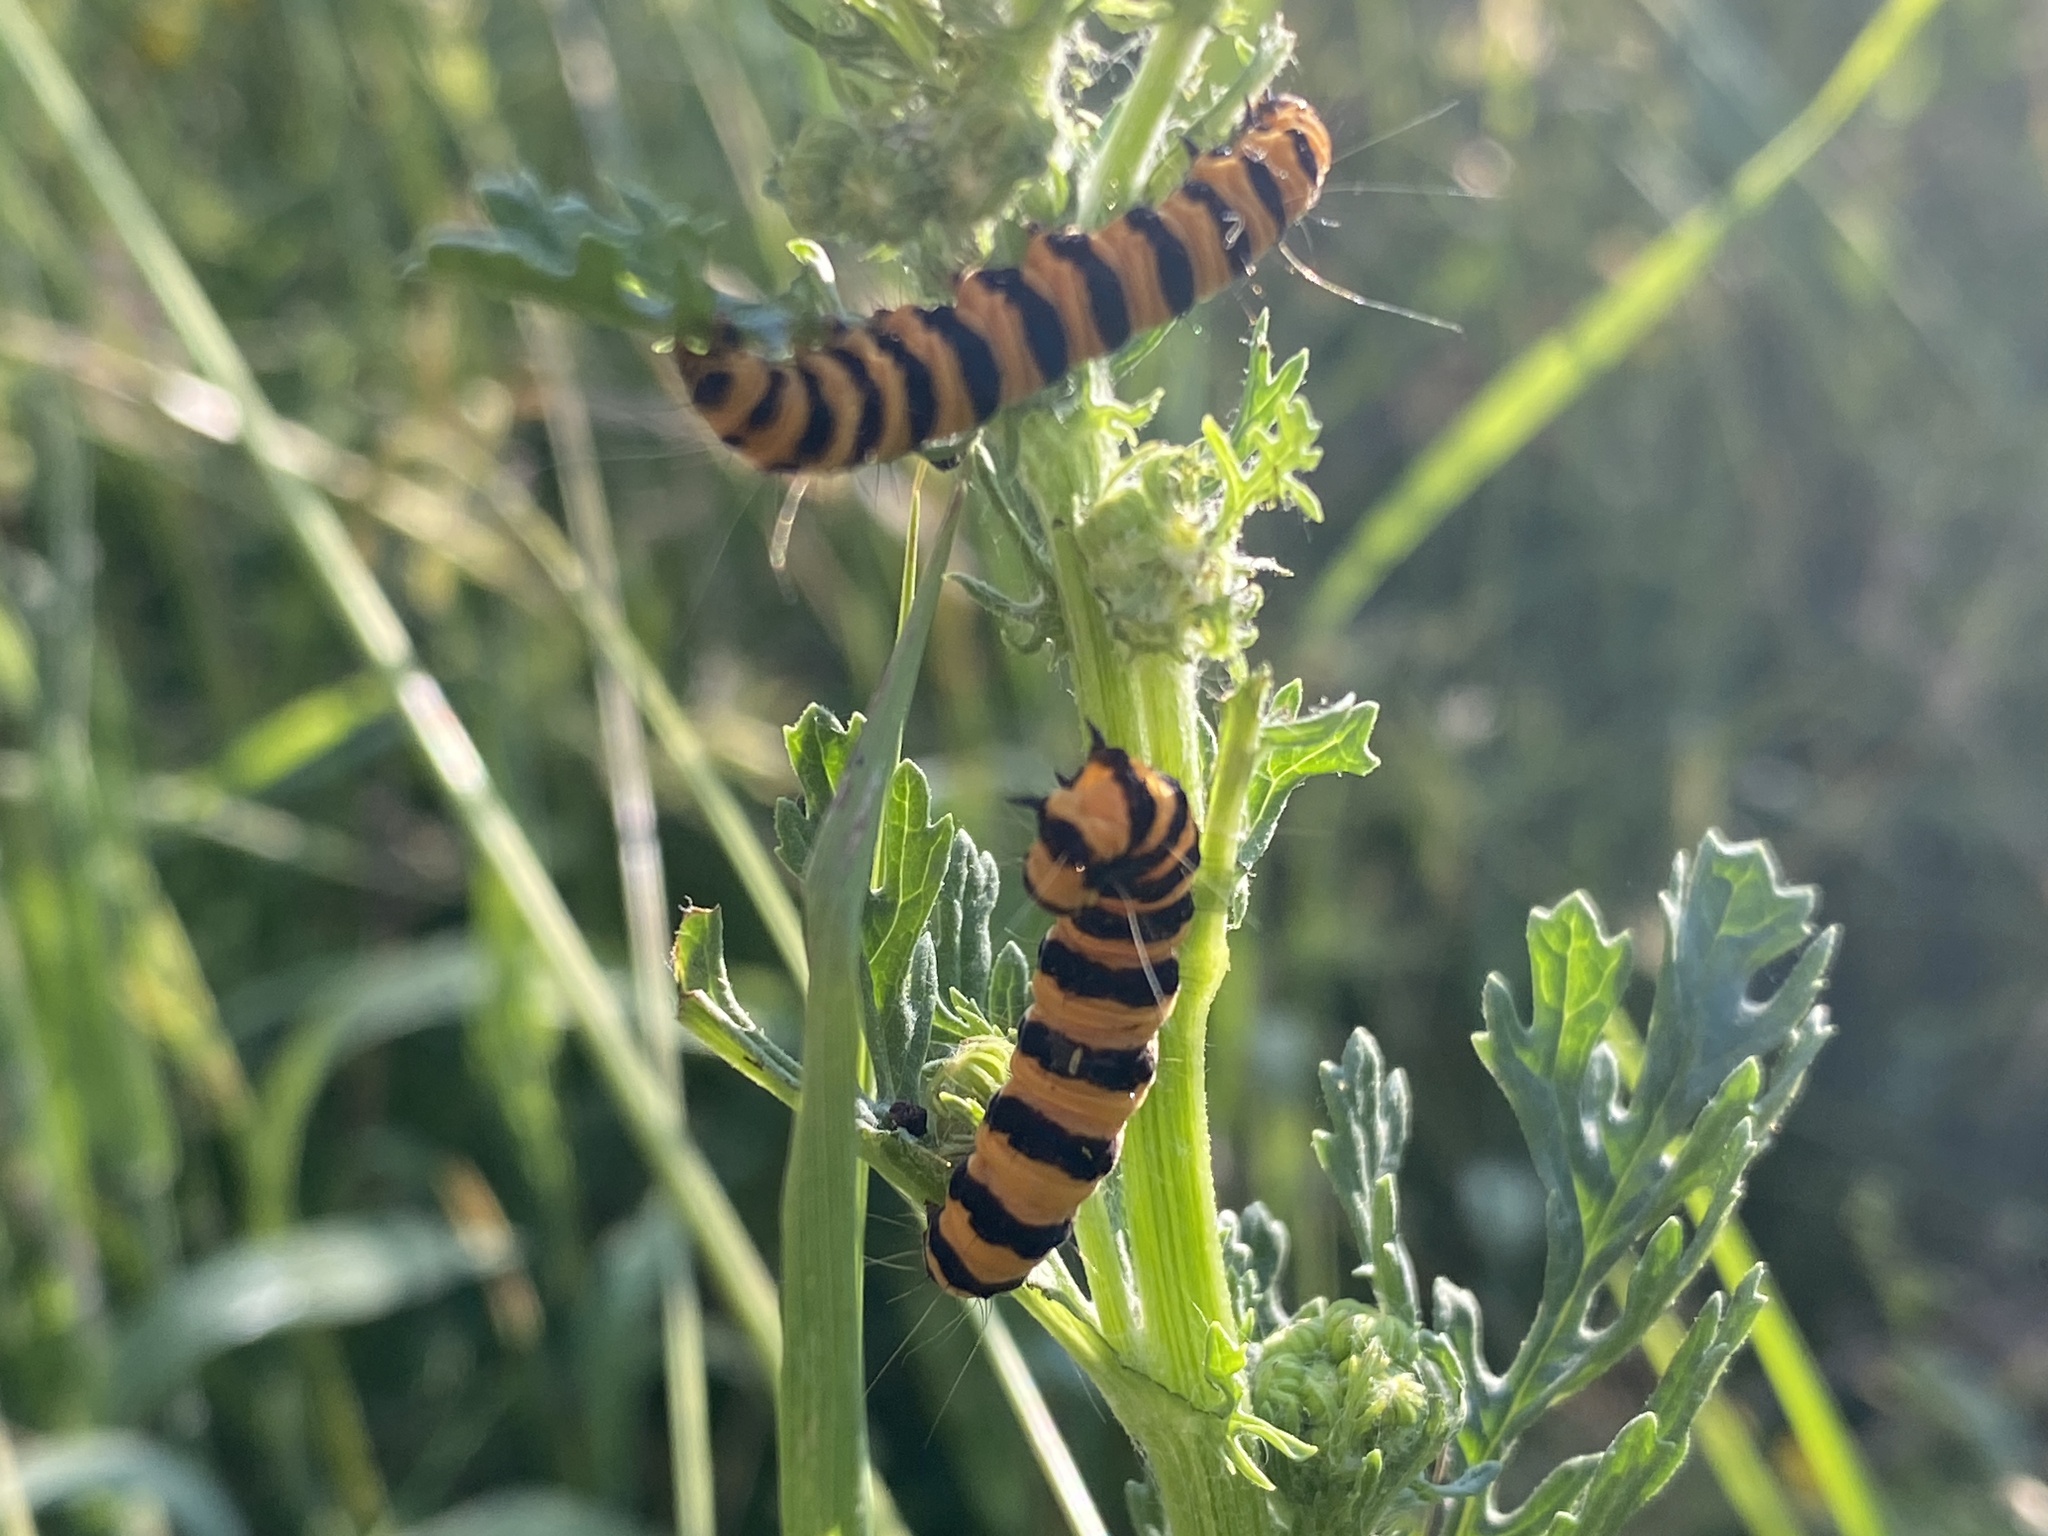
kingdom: Animalia
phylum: Arthropoda
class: Insecta
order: Lepidoptera
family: Erebidae
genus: Tyria
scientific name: Tyria jacobaeae
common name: Cinnabar
